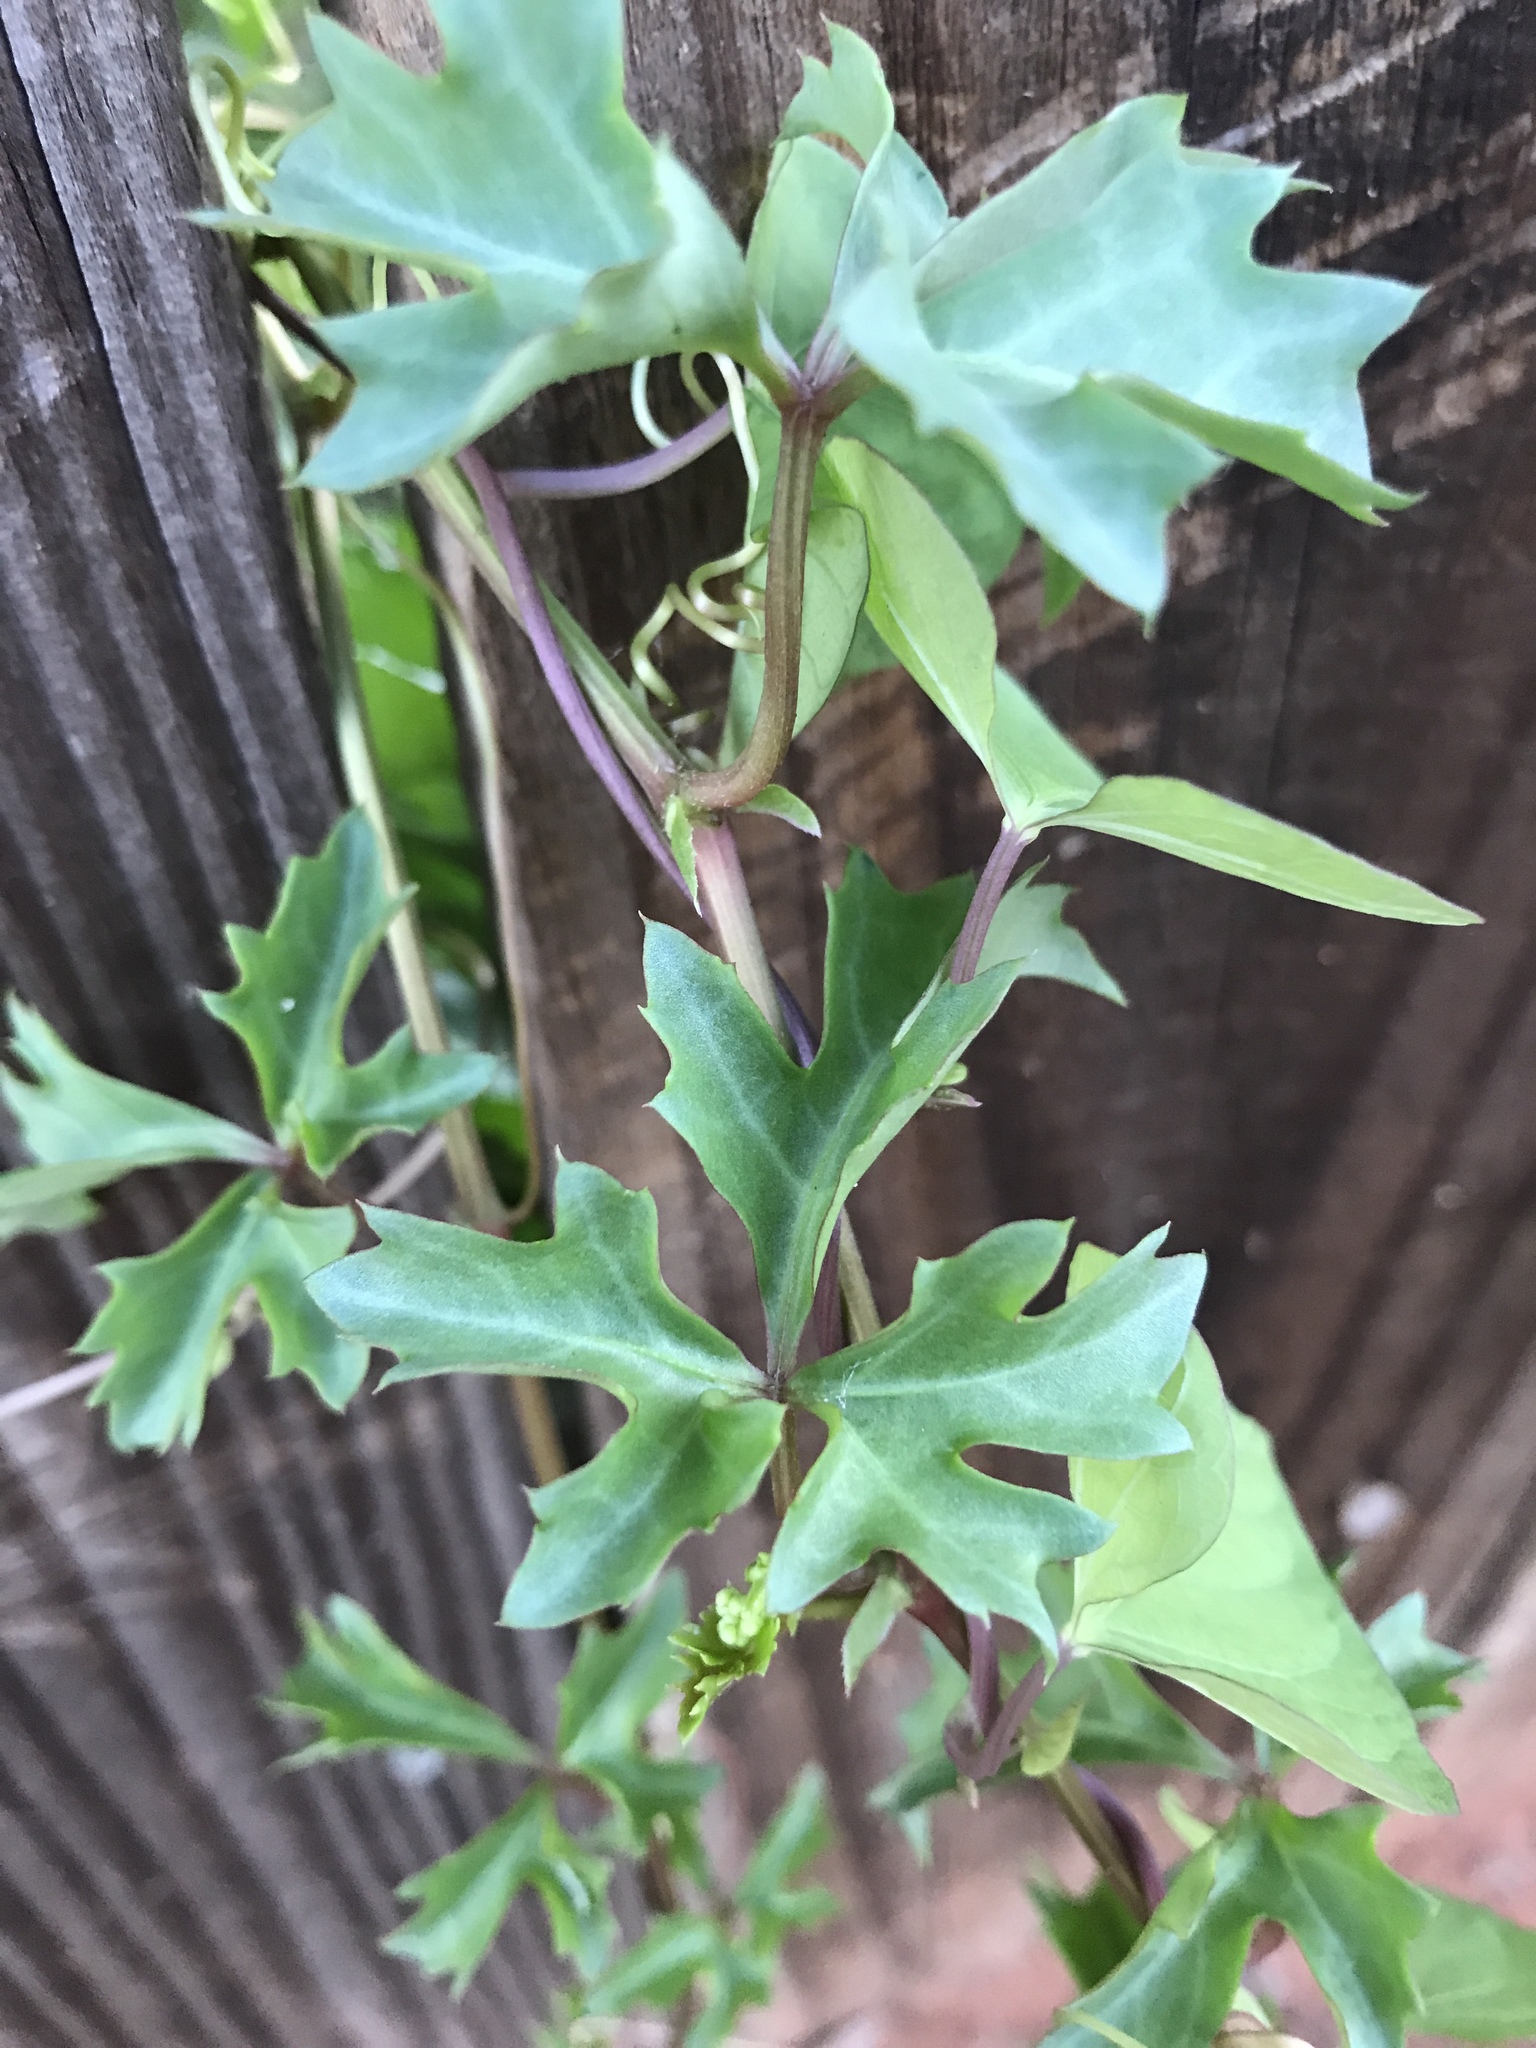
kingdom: Plantae
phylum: Tracheophyta
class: Magnoliopsida
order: Vitales
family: Vitaceae
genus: Cissus
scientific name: Cissus trifoliata
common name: Vine-sorrel
